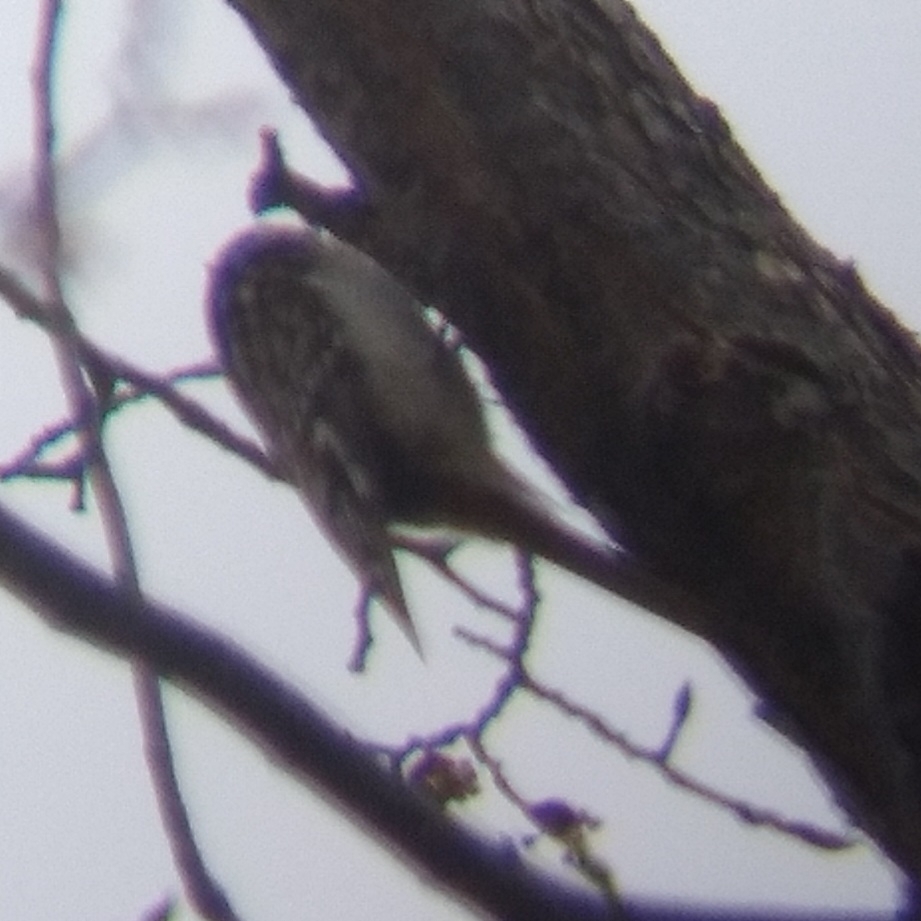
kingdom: Animalia
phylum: Chordata
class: Aves
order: Passeriformes
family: Certhiidae
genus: Certhia
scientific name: Certhia americana
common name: Brown creeper
